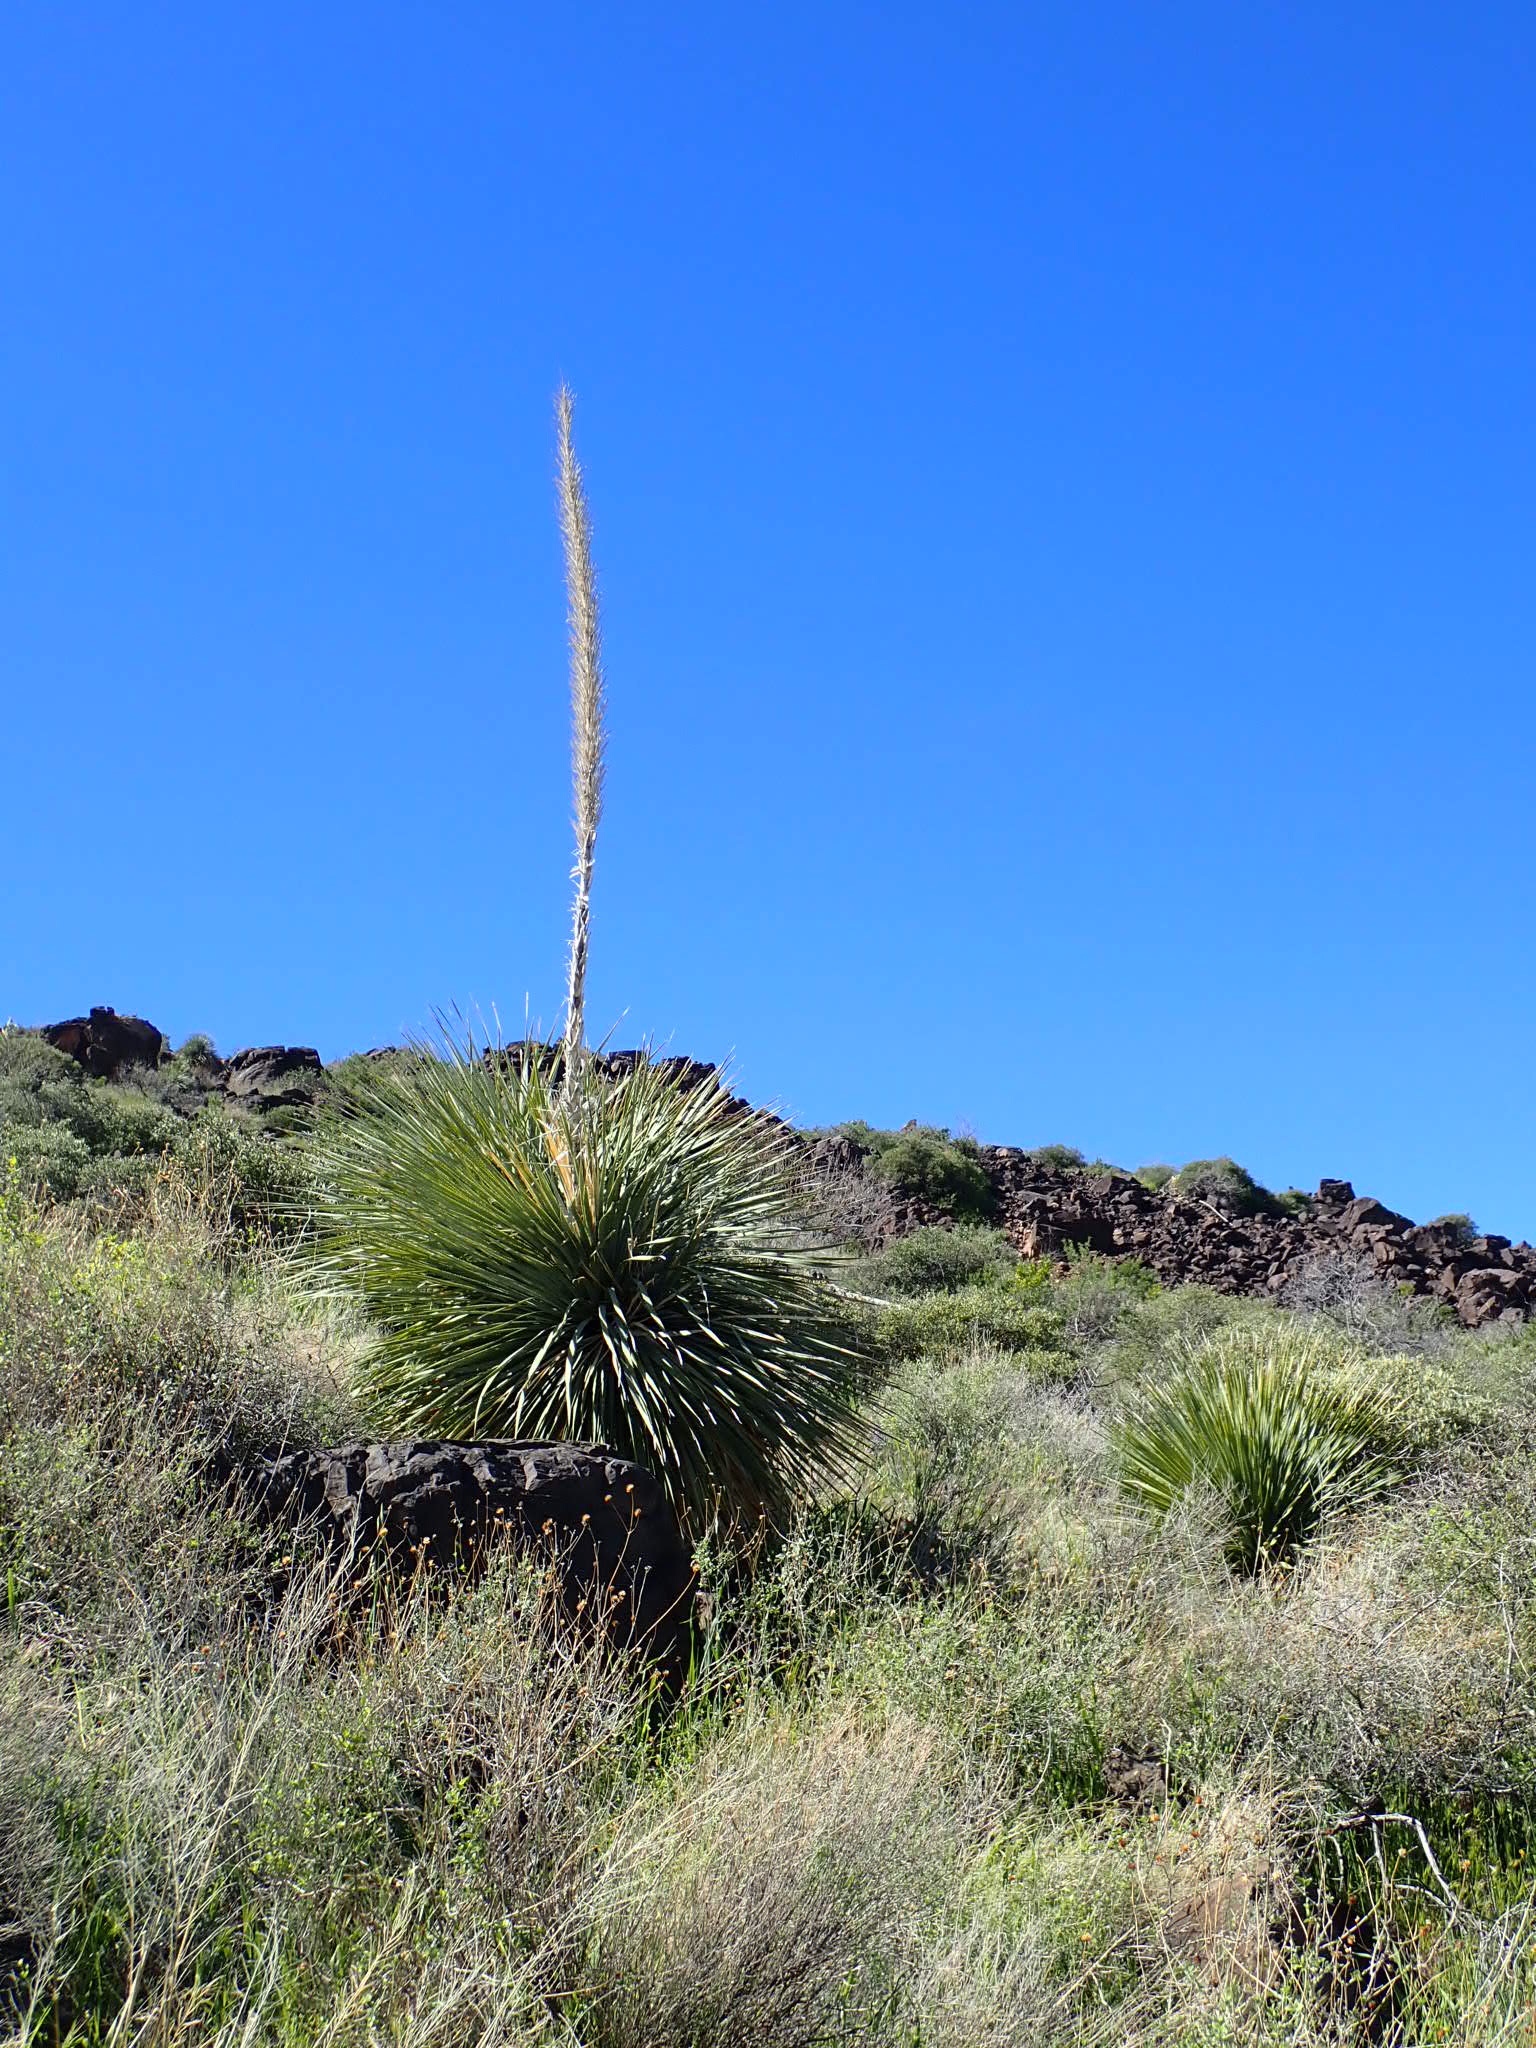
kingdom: Plantae
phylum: Tracheophyta
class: Liliopsida
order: Asparagales
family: Asparagaceae
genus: Dasylirion
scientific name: Dasylirion wheeleri
